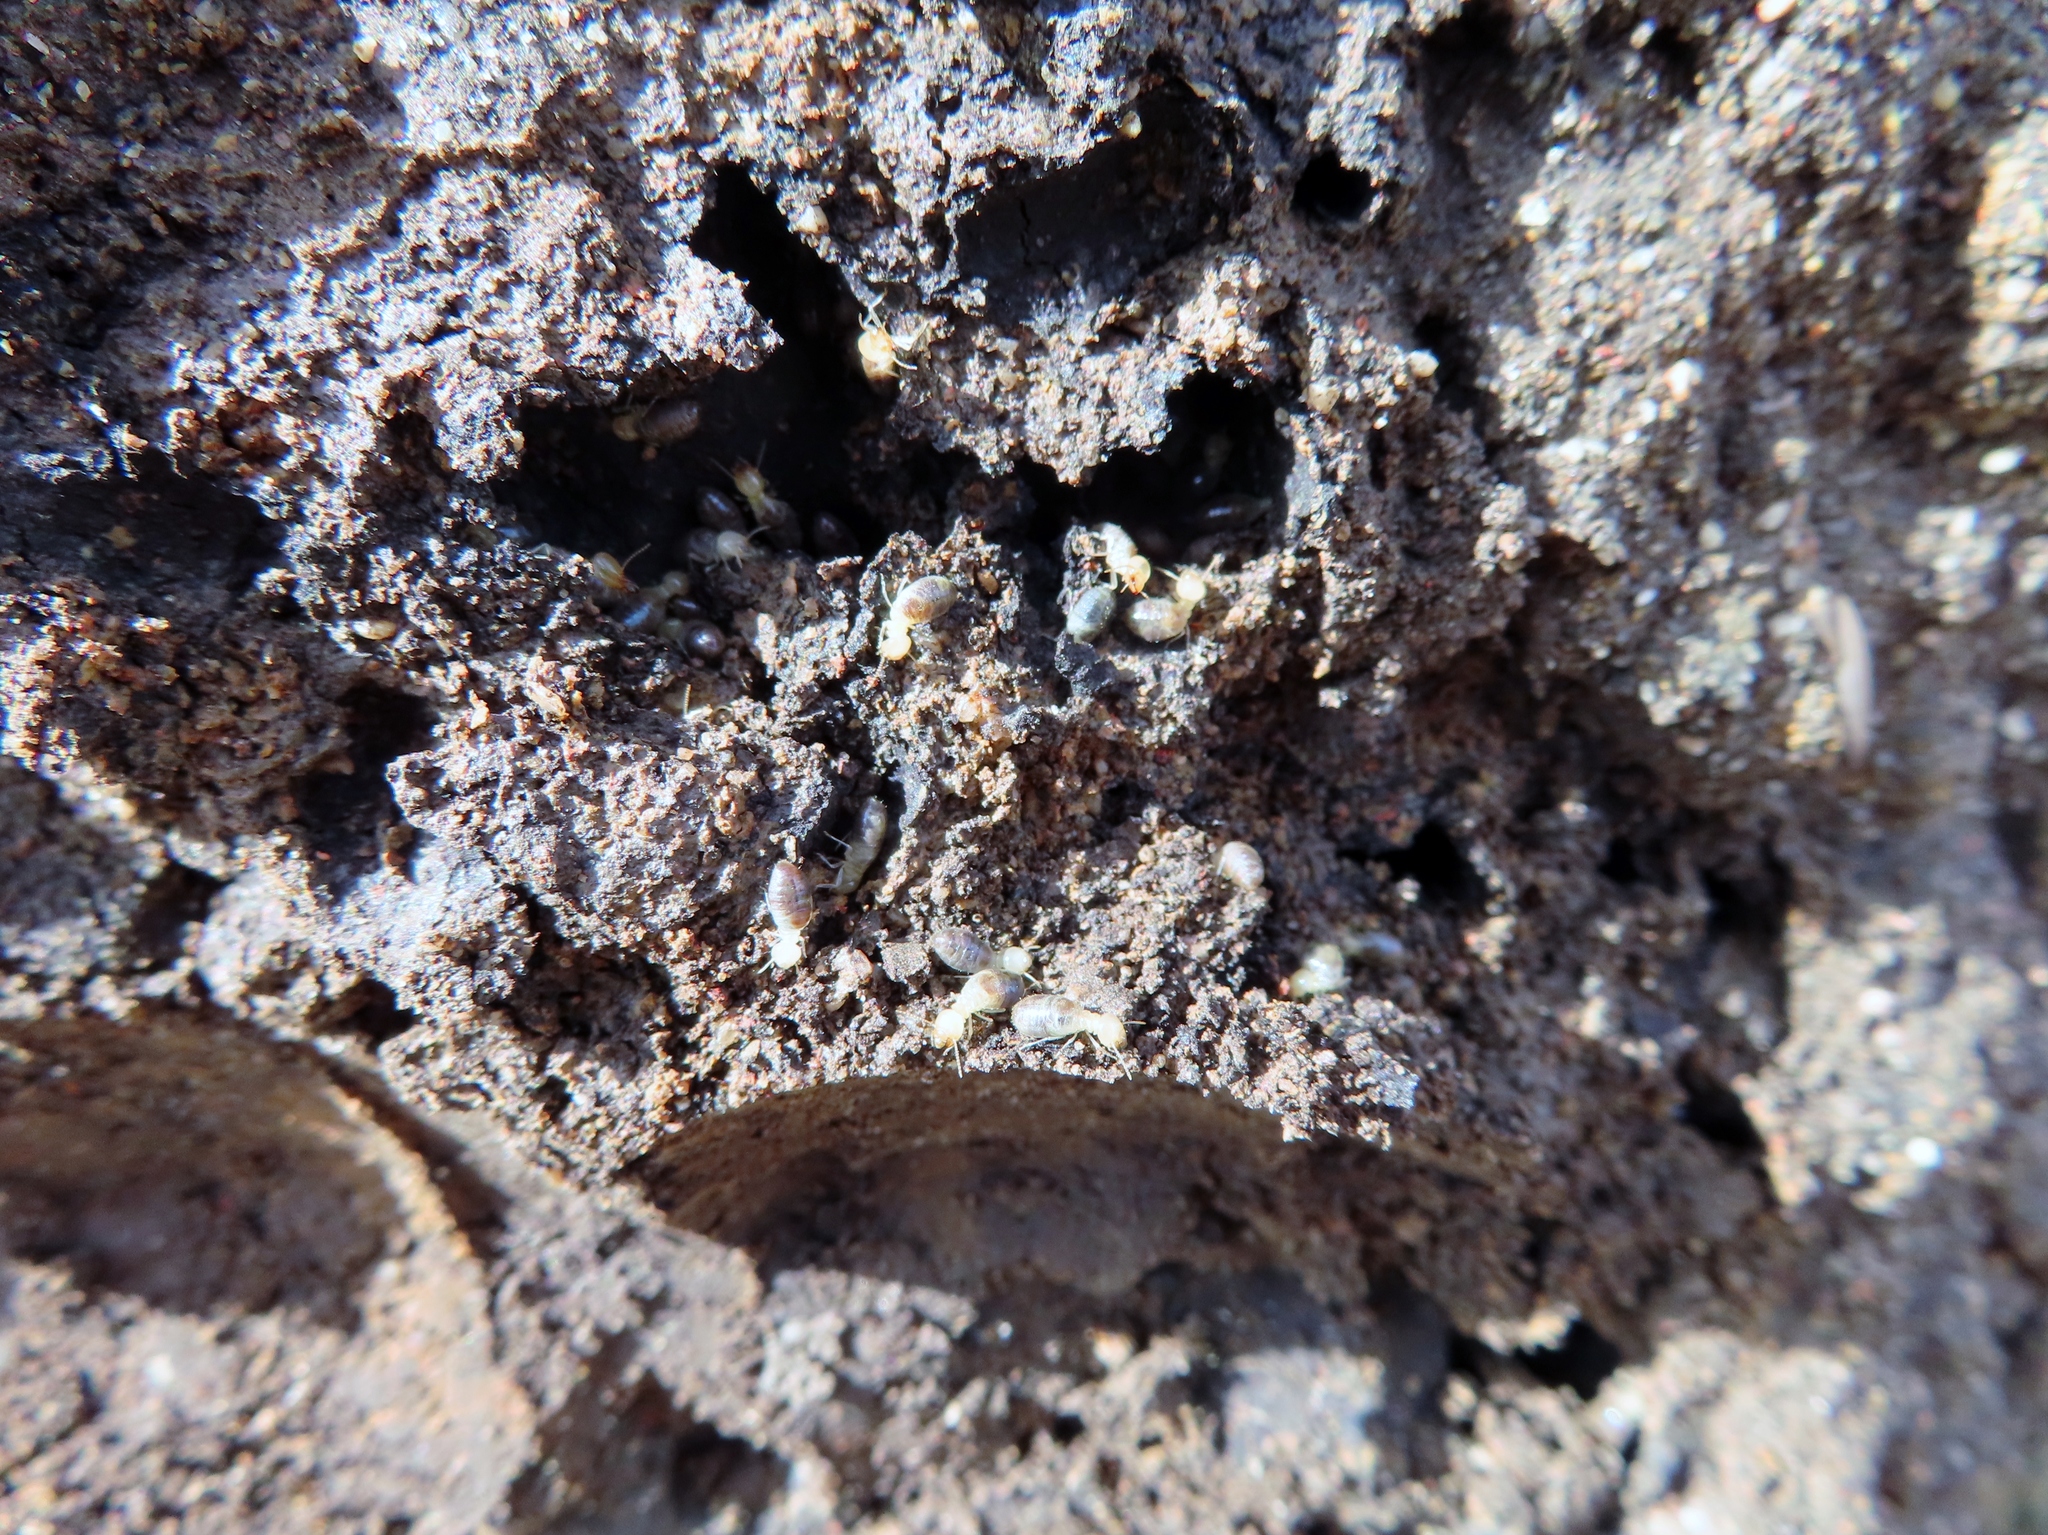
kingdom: Animalia
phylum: Arthropoda
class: Insecta
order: Blattodea
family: Termitidae
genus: Amitermes
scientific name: Amitermes hastatus
